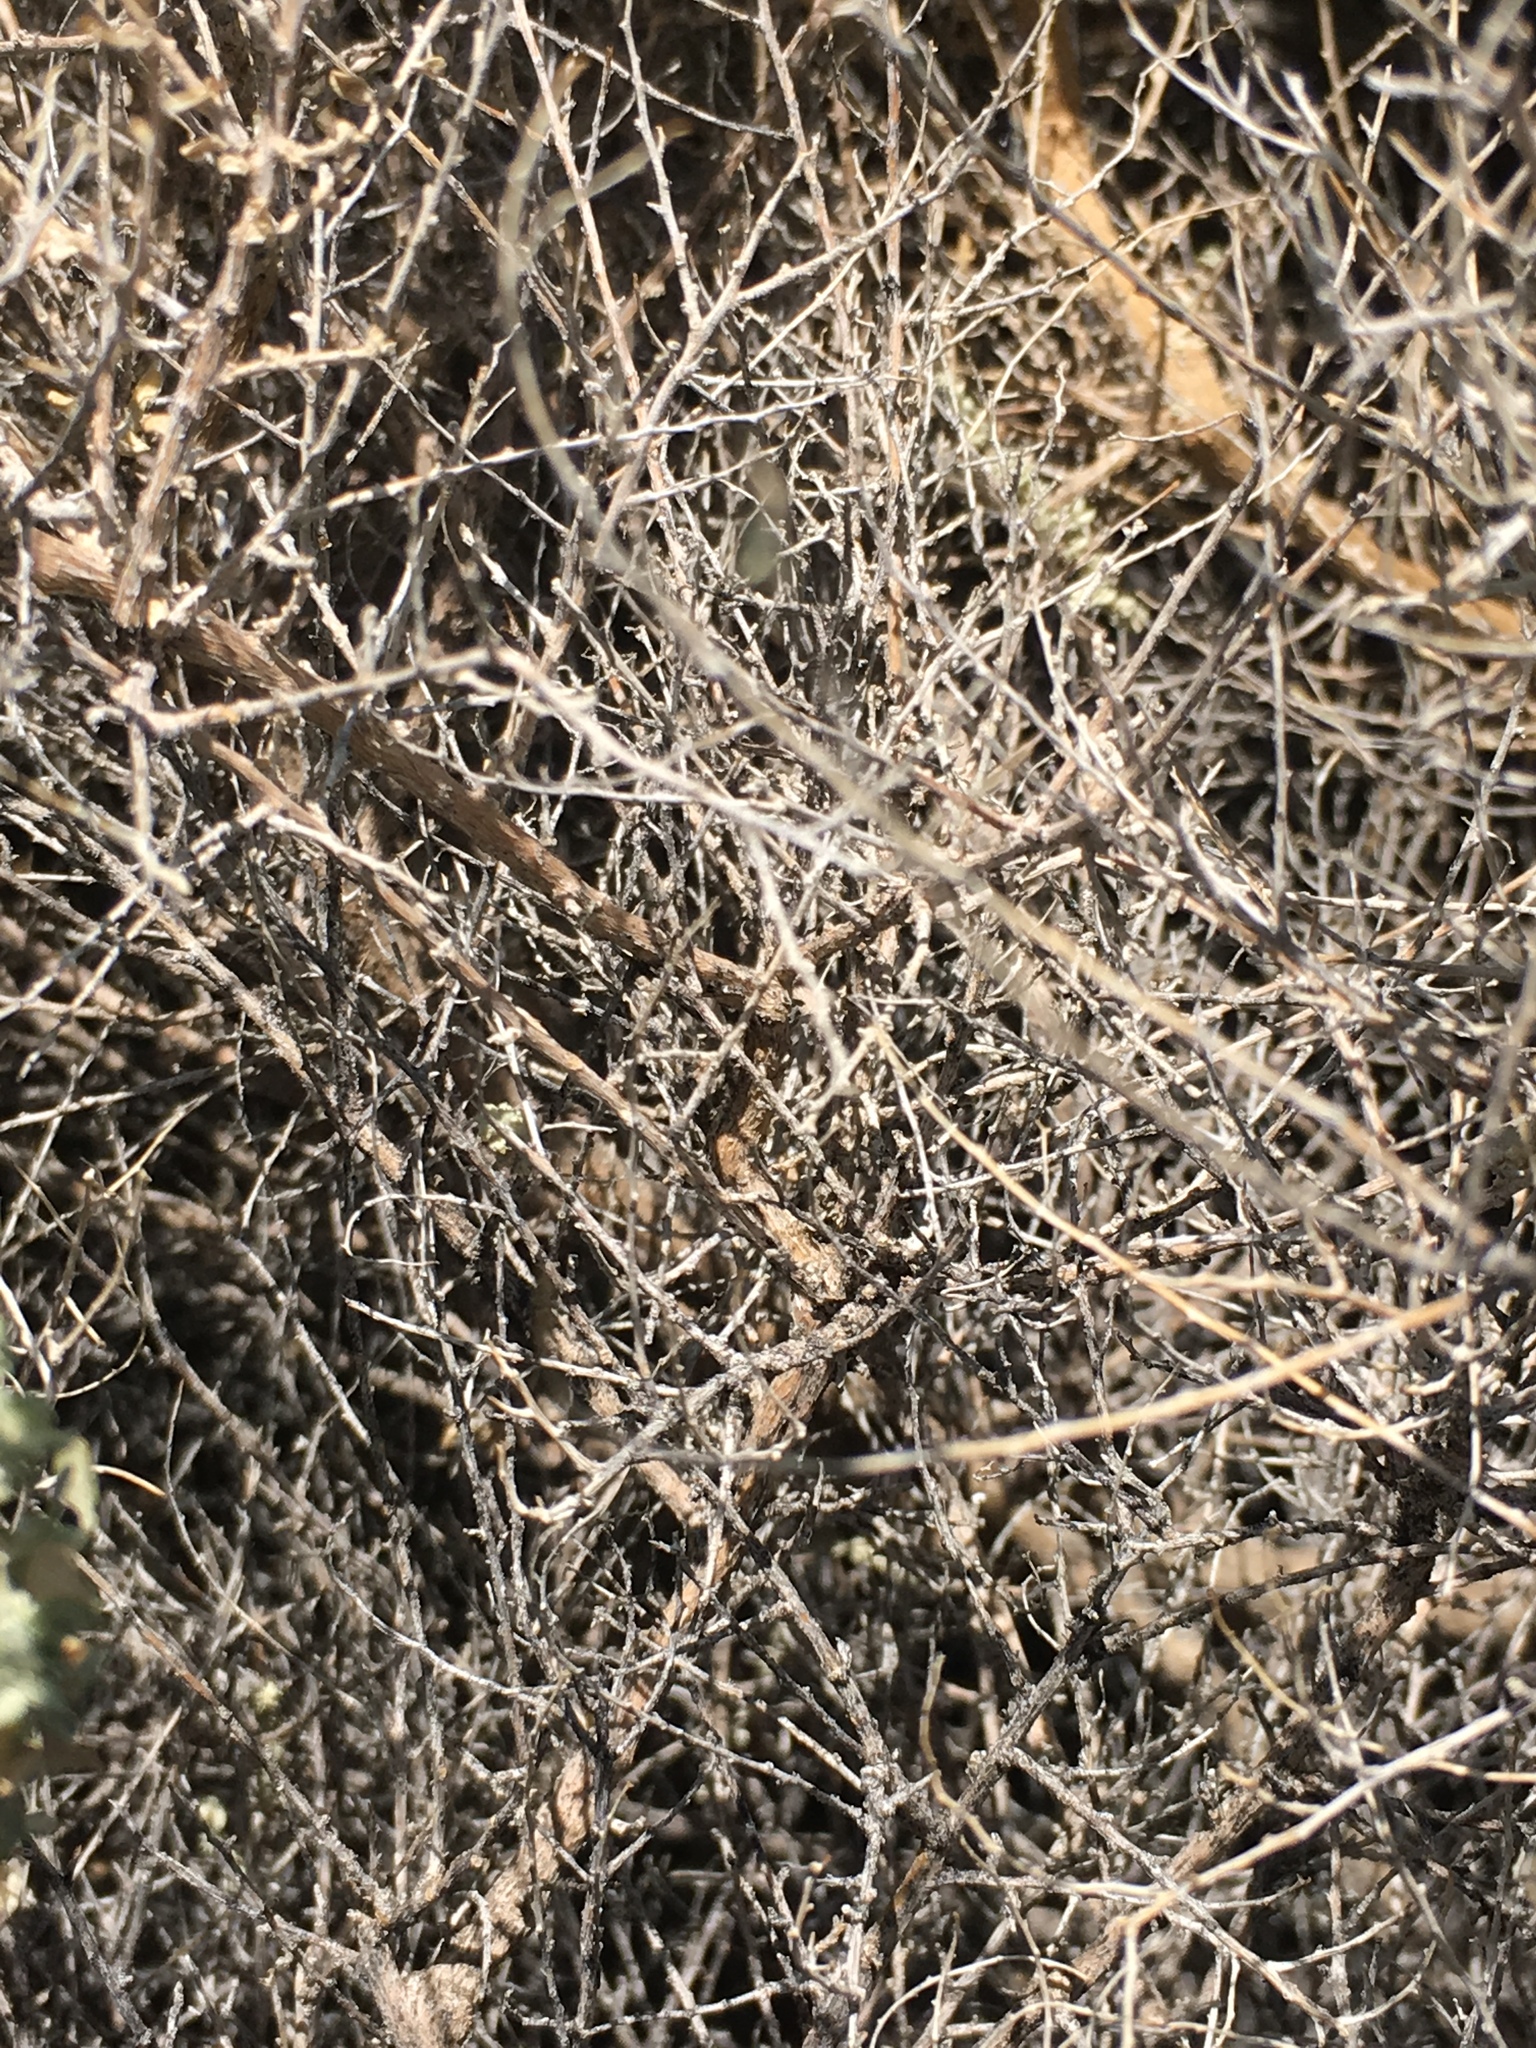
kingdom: Plantae
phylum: Tracheophyta
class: Magnoliopsida
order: Caryophyllales
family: Amaranthaceae
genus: Atriplex
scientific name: Atriplex polycarpa
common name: Desert saltbush
